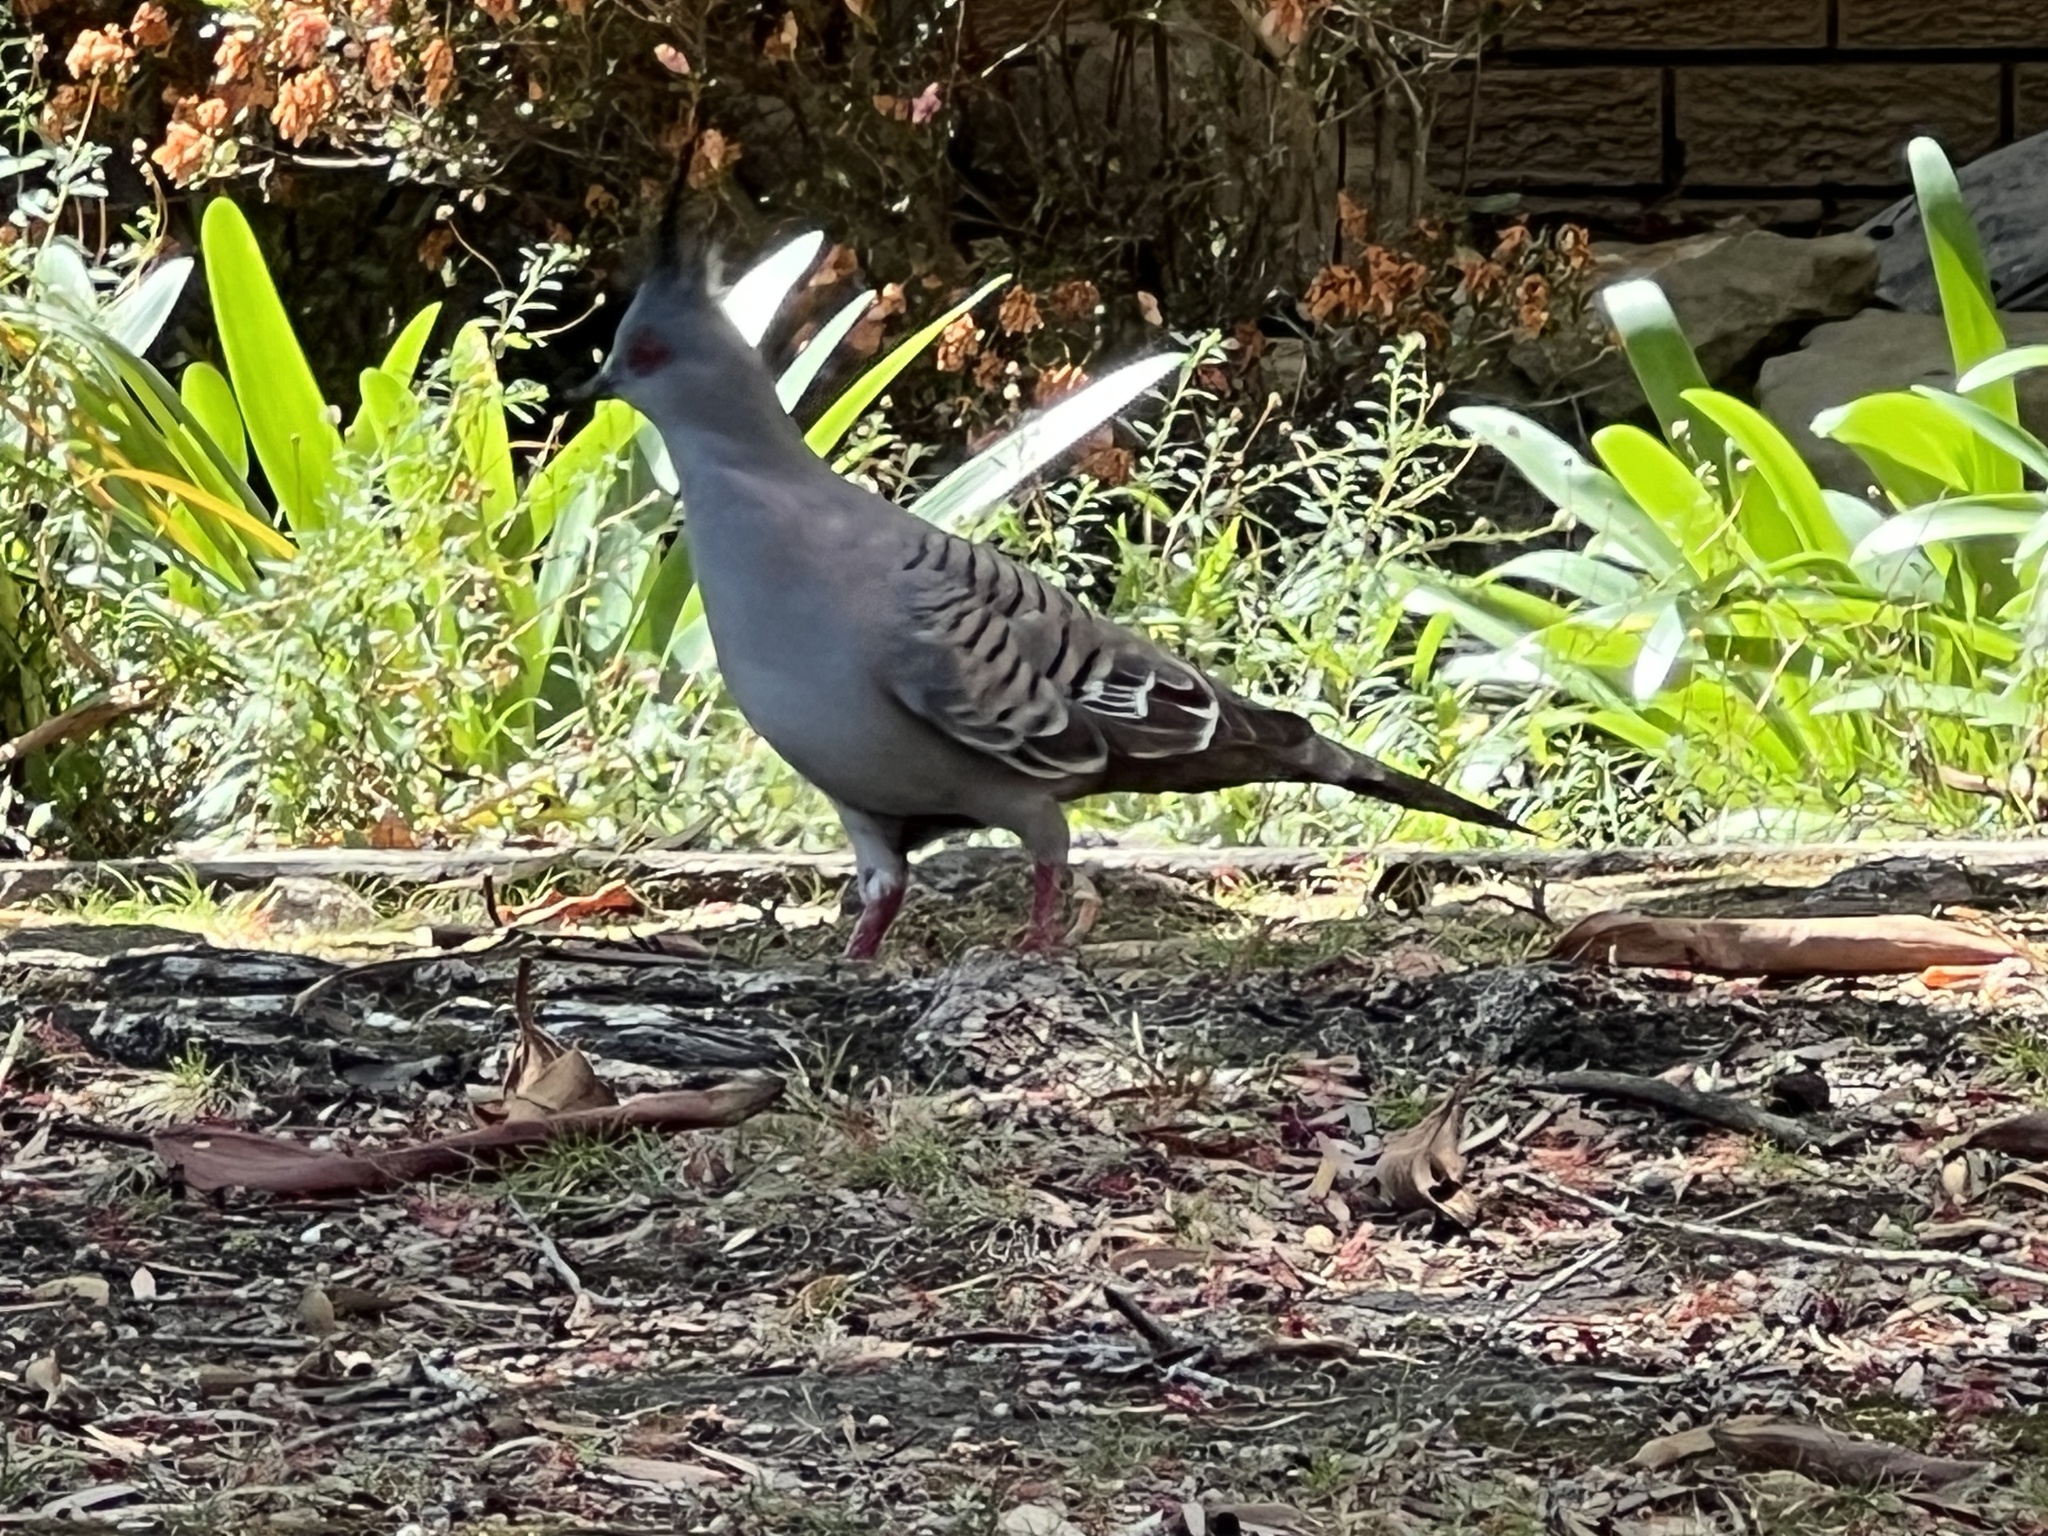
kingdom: Animalia
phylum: Chordata
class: Aves
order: Columbiformes
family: Columbidae
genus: Ocyphaps
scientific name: Ocyphaps lophotes
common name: Crested pigeon
